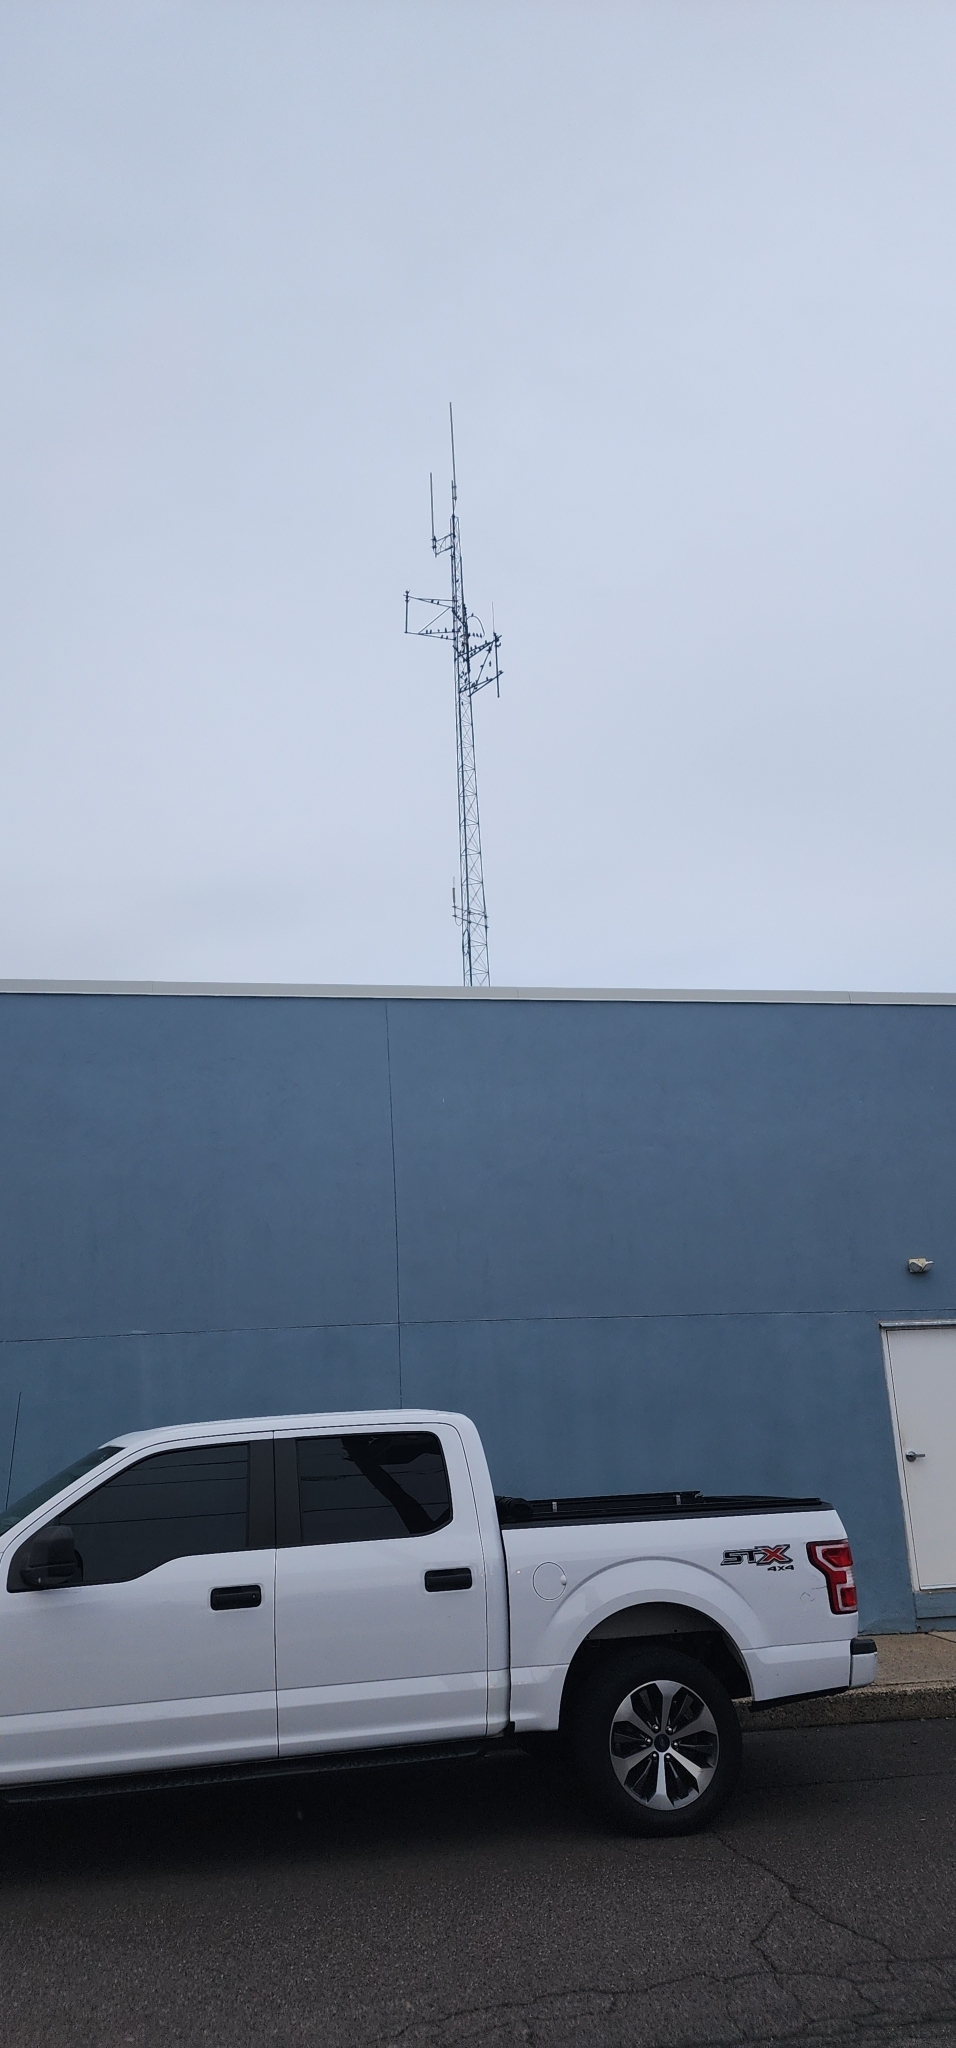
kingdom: Animalia
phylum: Chordata
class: Aves
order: Passeriformes
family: Sturnidae
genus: Sturnus
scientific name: Sturnus vulgaris
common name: Common starling
